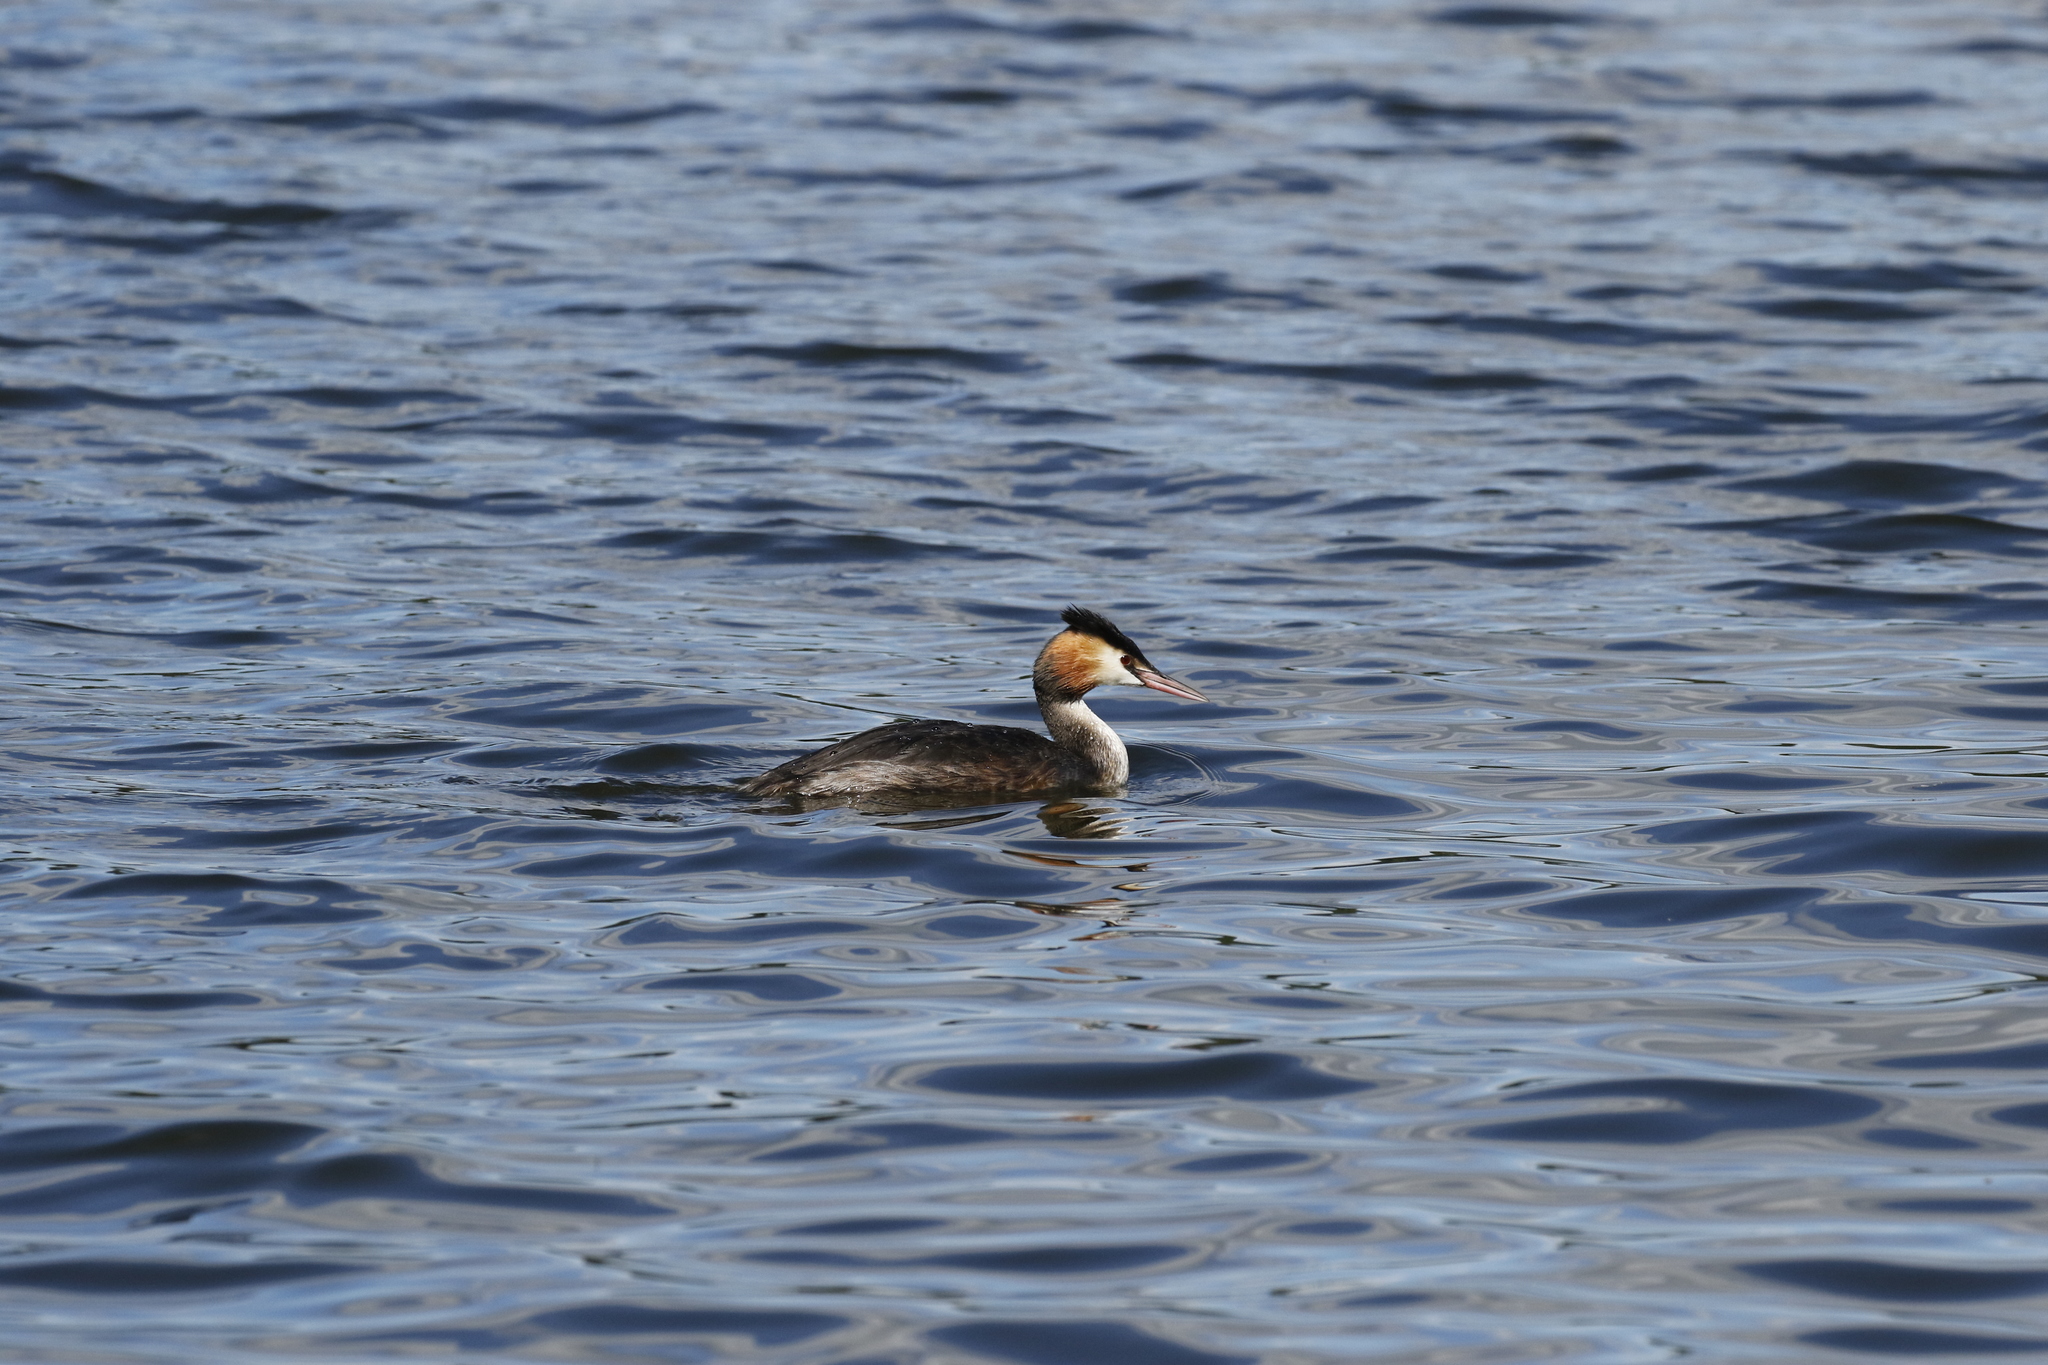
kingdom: Animalia
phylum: Chordata
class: Aves
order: Podicipediformes
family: Podicipedidae
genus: Podiceps
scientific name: Podiceps cristatus
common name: Great crested grebe
